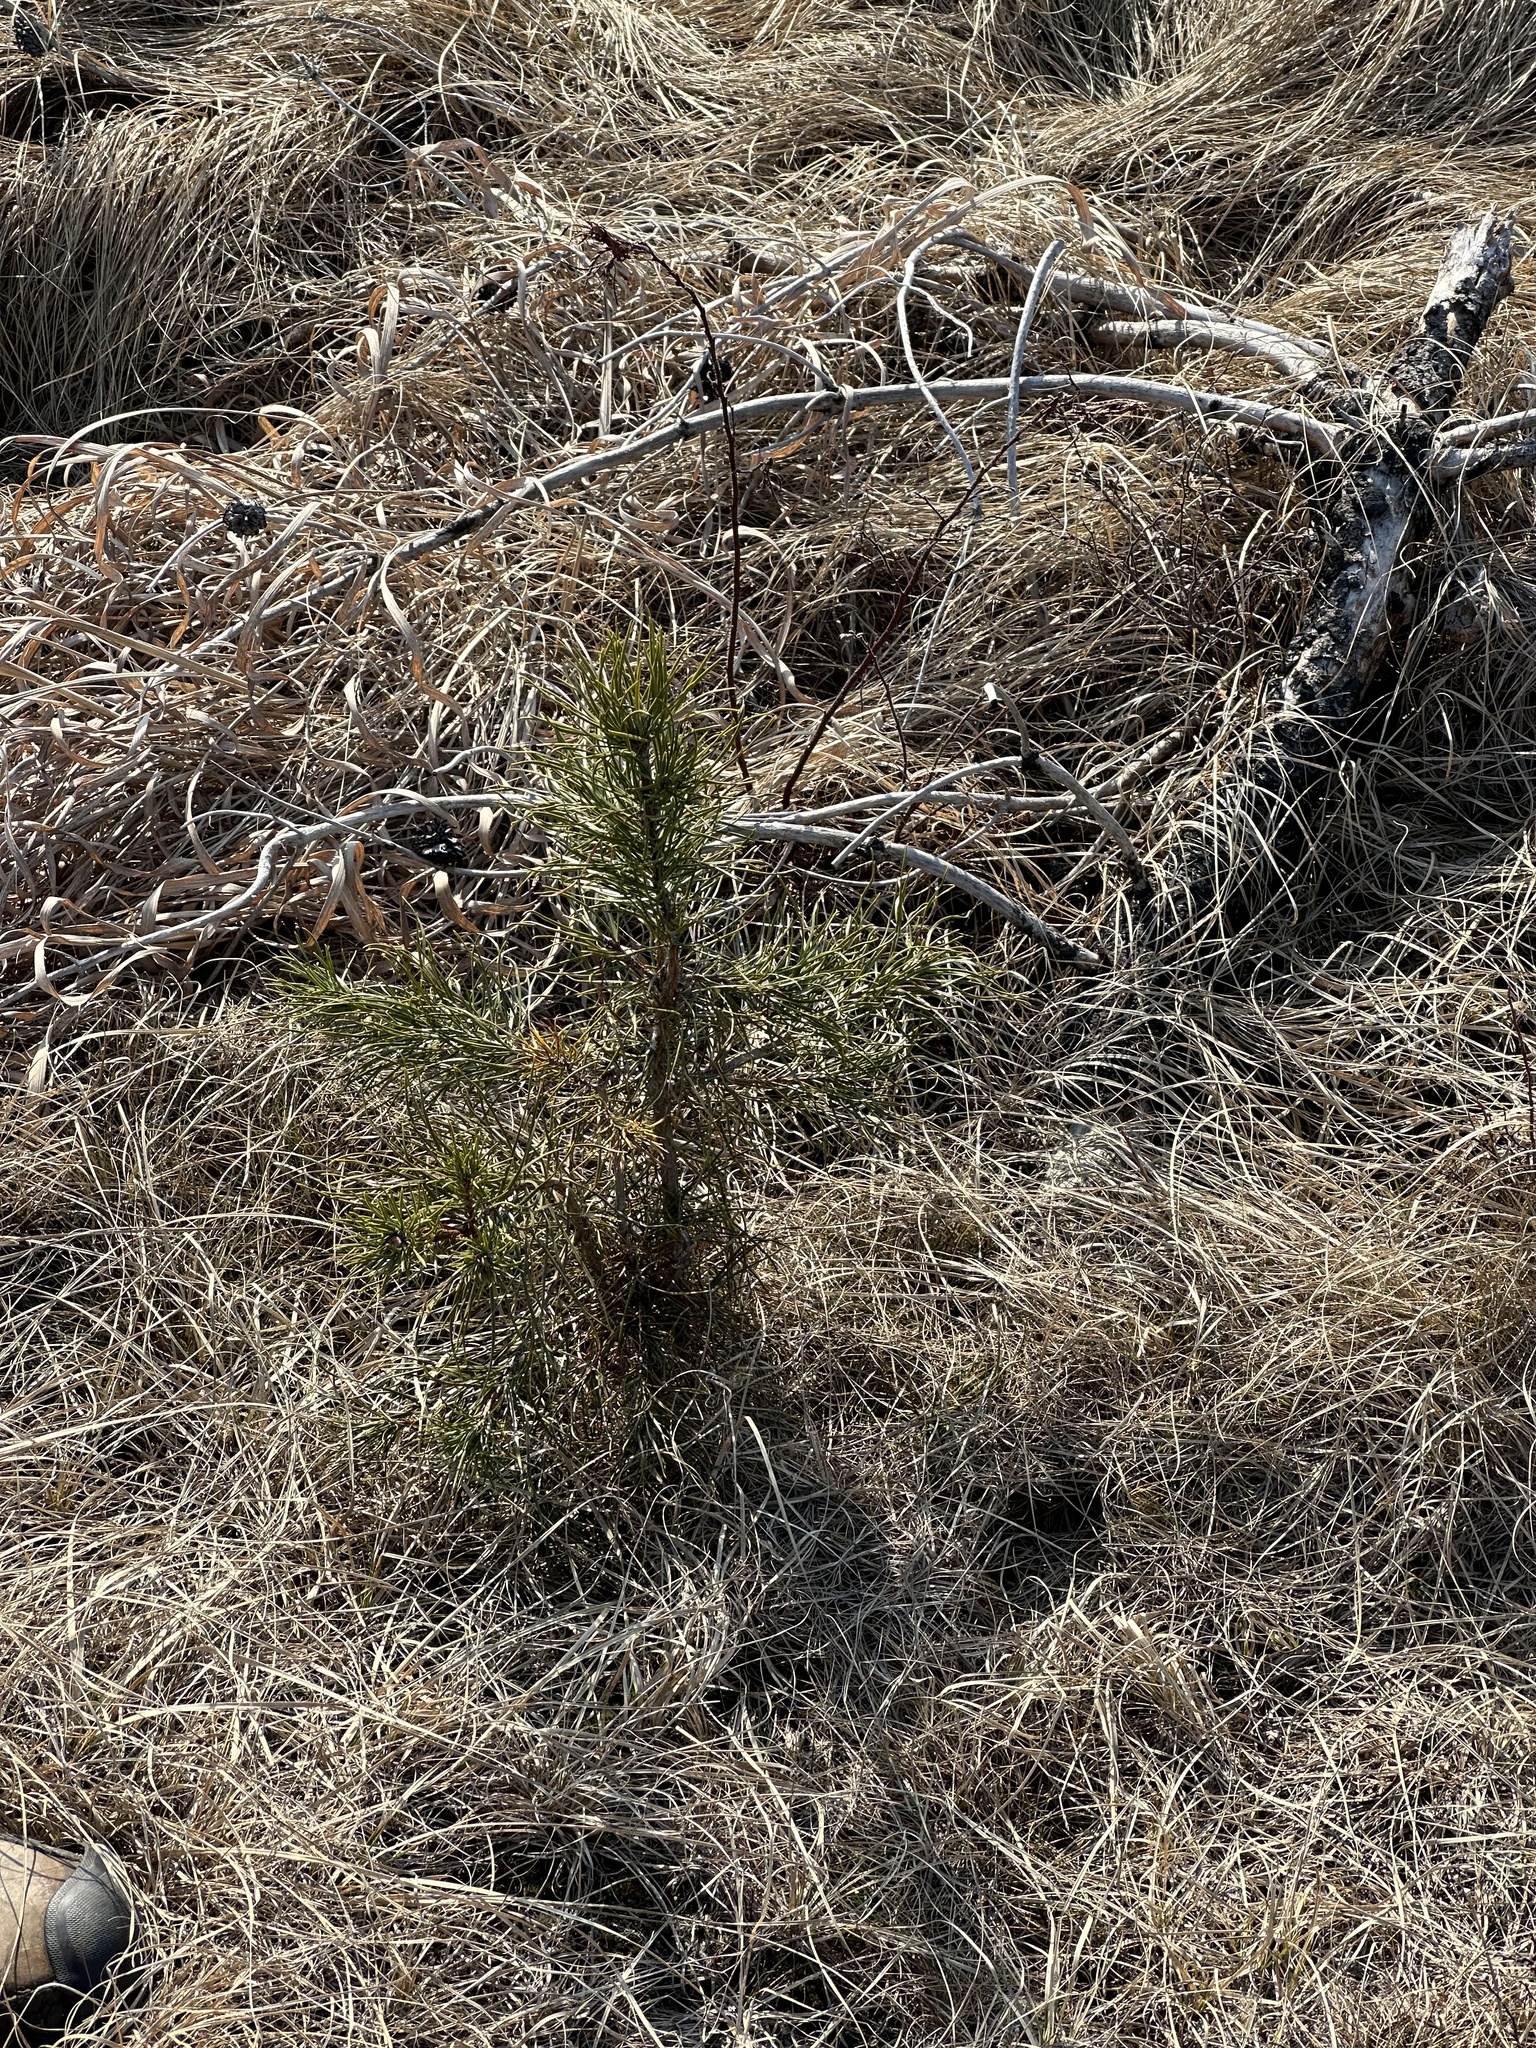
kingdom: Plantae
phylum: Tracheophyta
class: Pinopsida
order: Pinales
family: Pinaceae
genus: Pinus
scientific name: Pinus banksiana
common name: Jack pine
